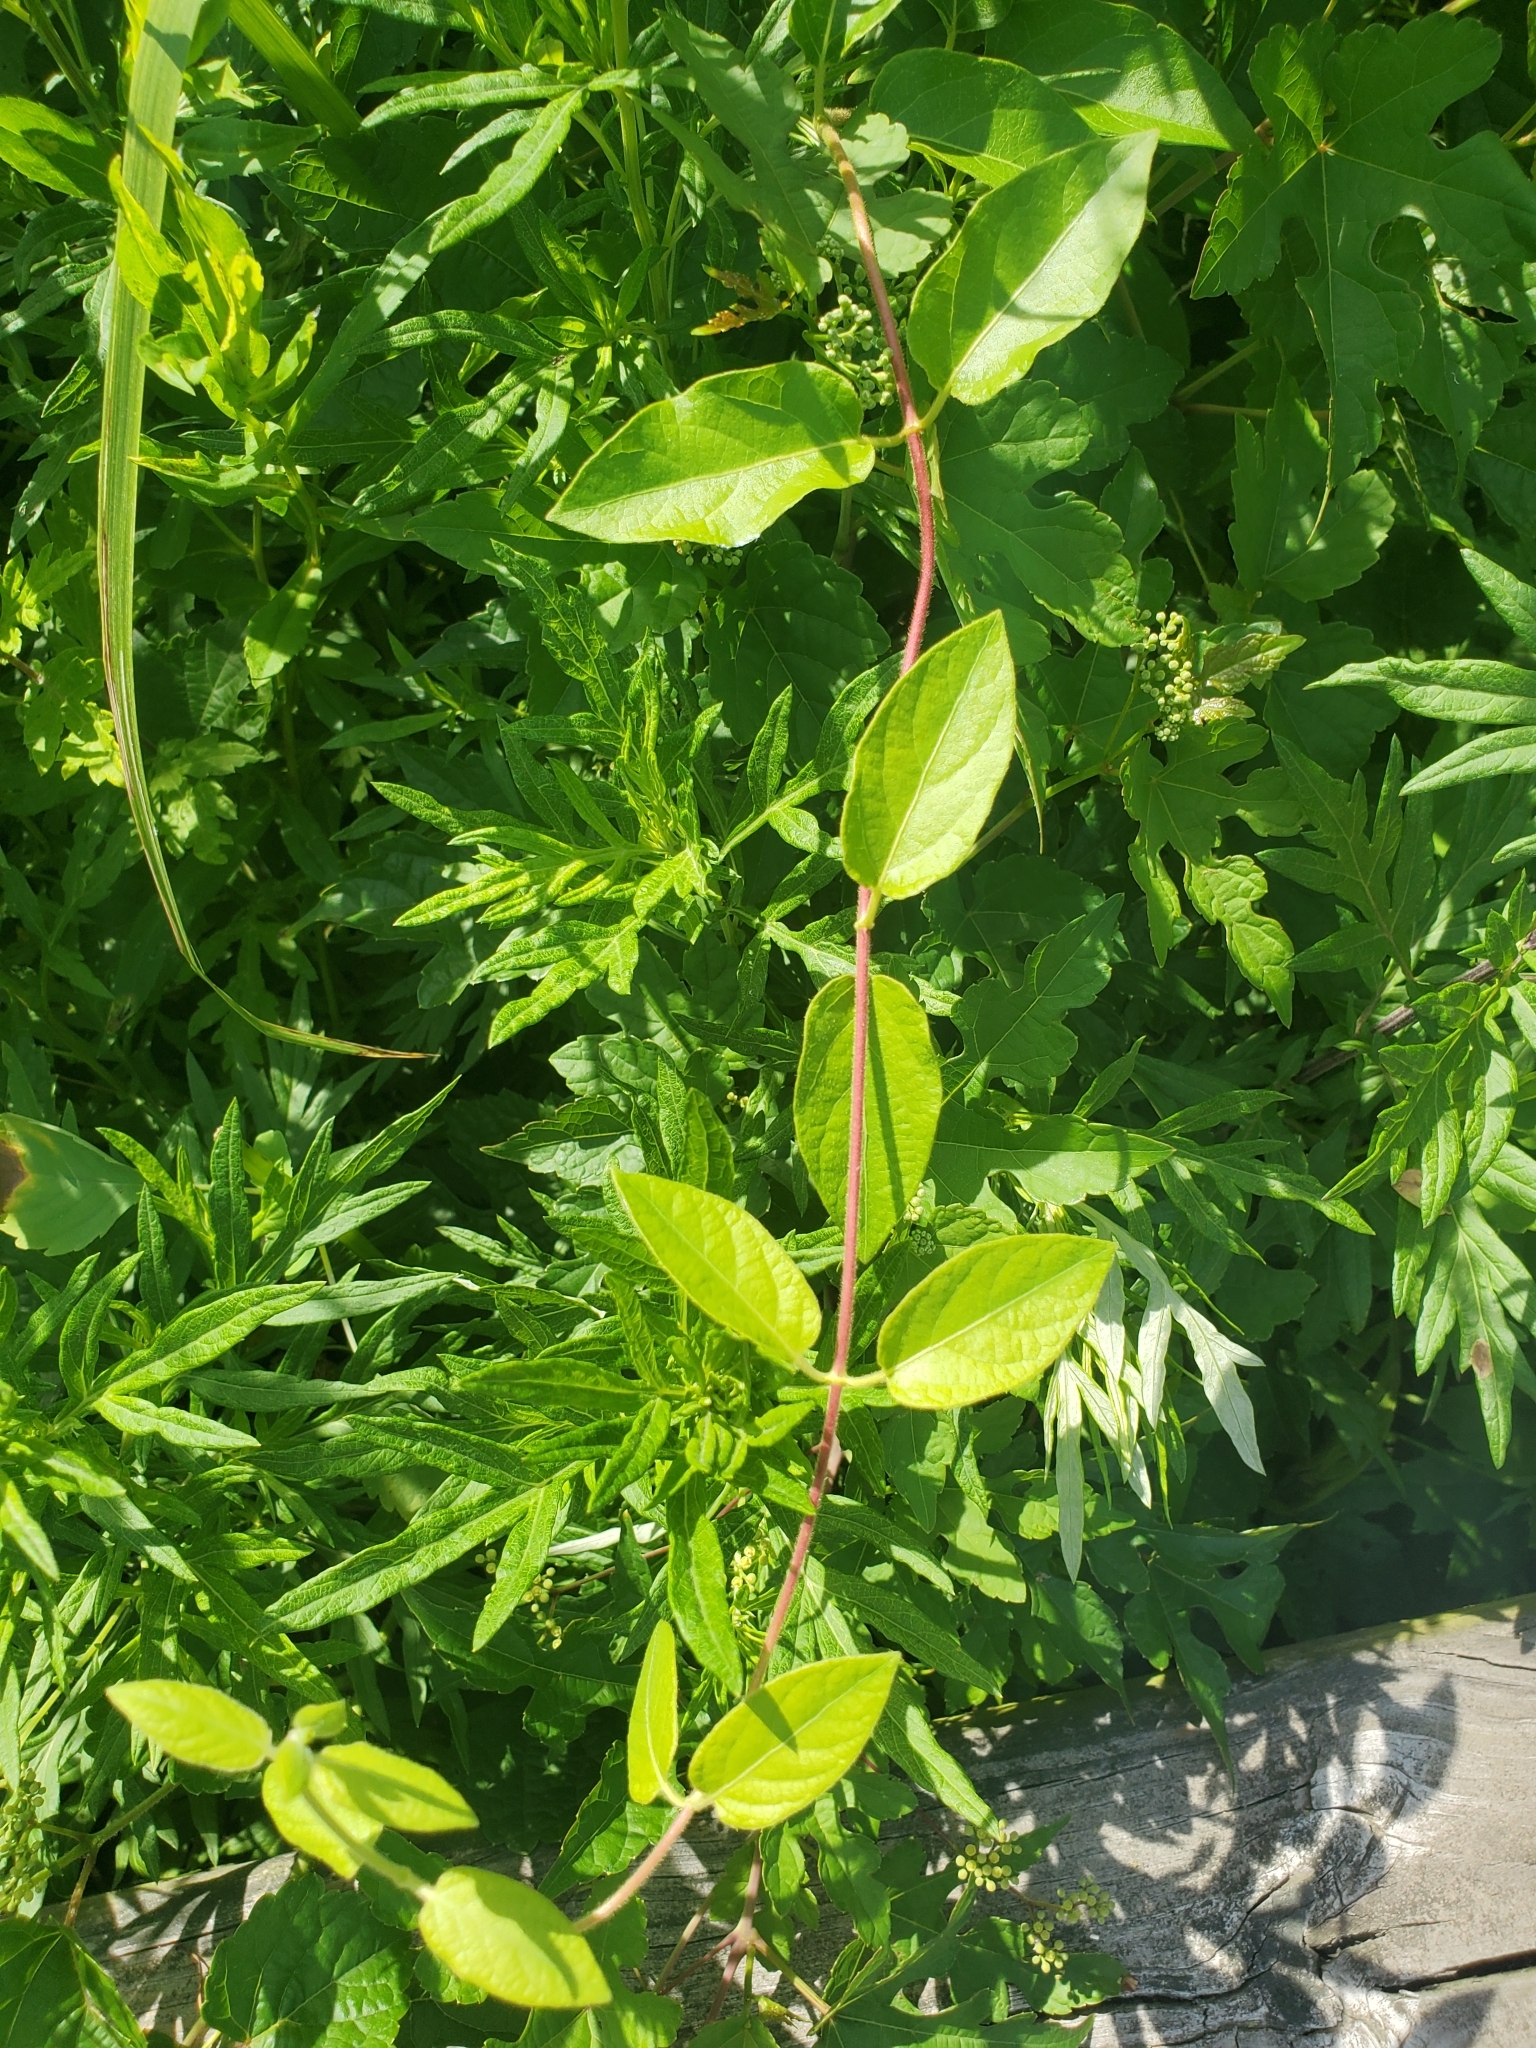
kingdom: Plantae
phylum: Tracheophyta
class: Magnoliopsida
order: Dipsacales
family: Caprifoliaceae
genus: Lonicera
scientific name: Lonicera japonica
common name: Japanese honeysuckle
